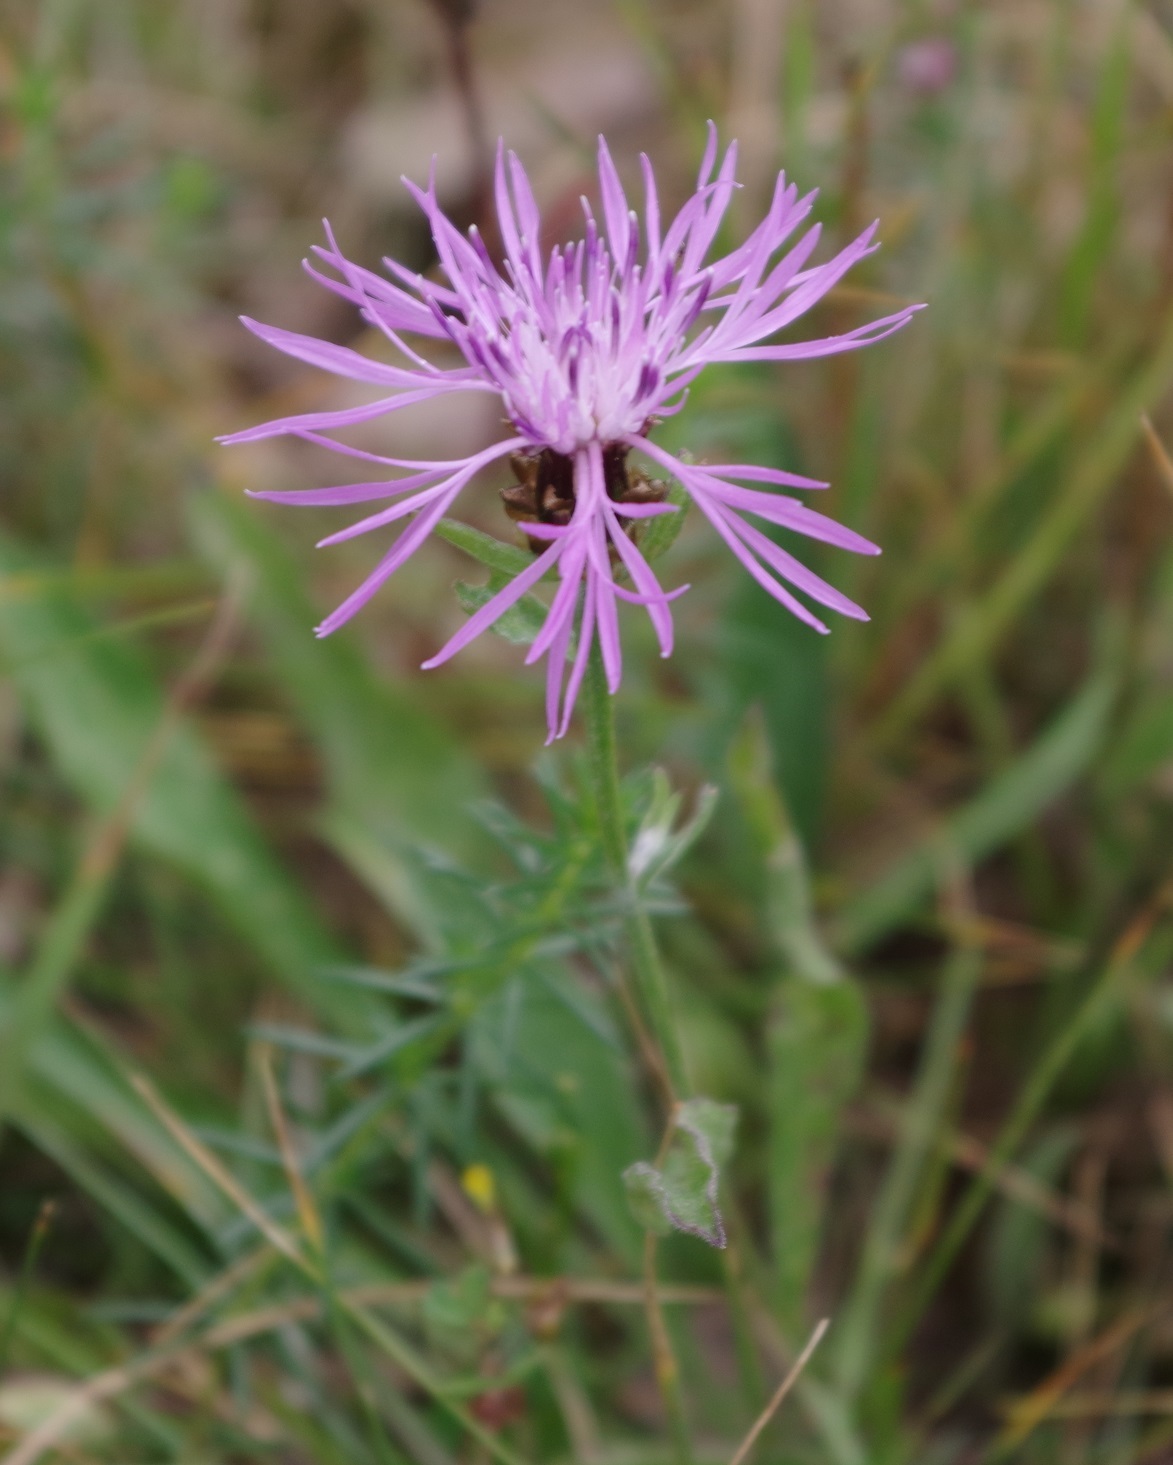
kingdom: Plantae
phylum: Tracheophyta
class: Magnoliopsida
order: Asterales
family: Asteraceae
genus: Centaurea
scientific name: Centaurea jacea
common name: Brown knapweed
